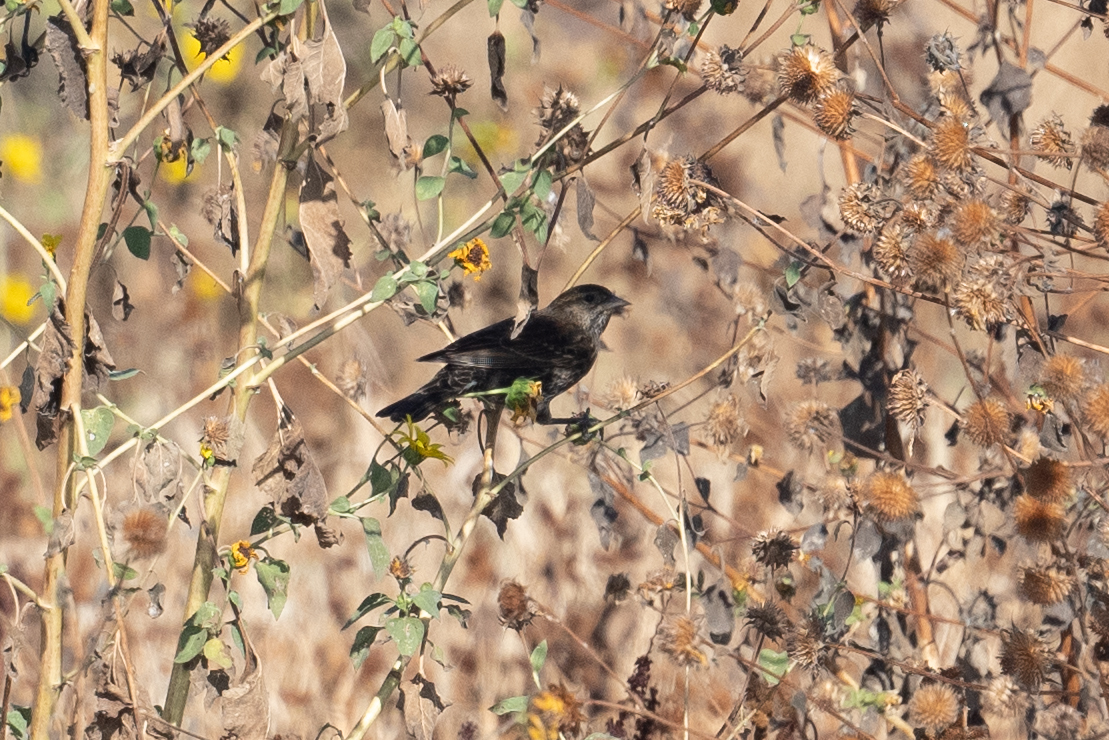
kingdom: Animalia
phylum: Chordata
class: Aves
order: Passeriformes
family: Icteridae
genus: Agelaius
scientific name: Agelaius phoeniceus
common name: Red-winged blackbird
